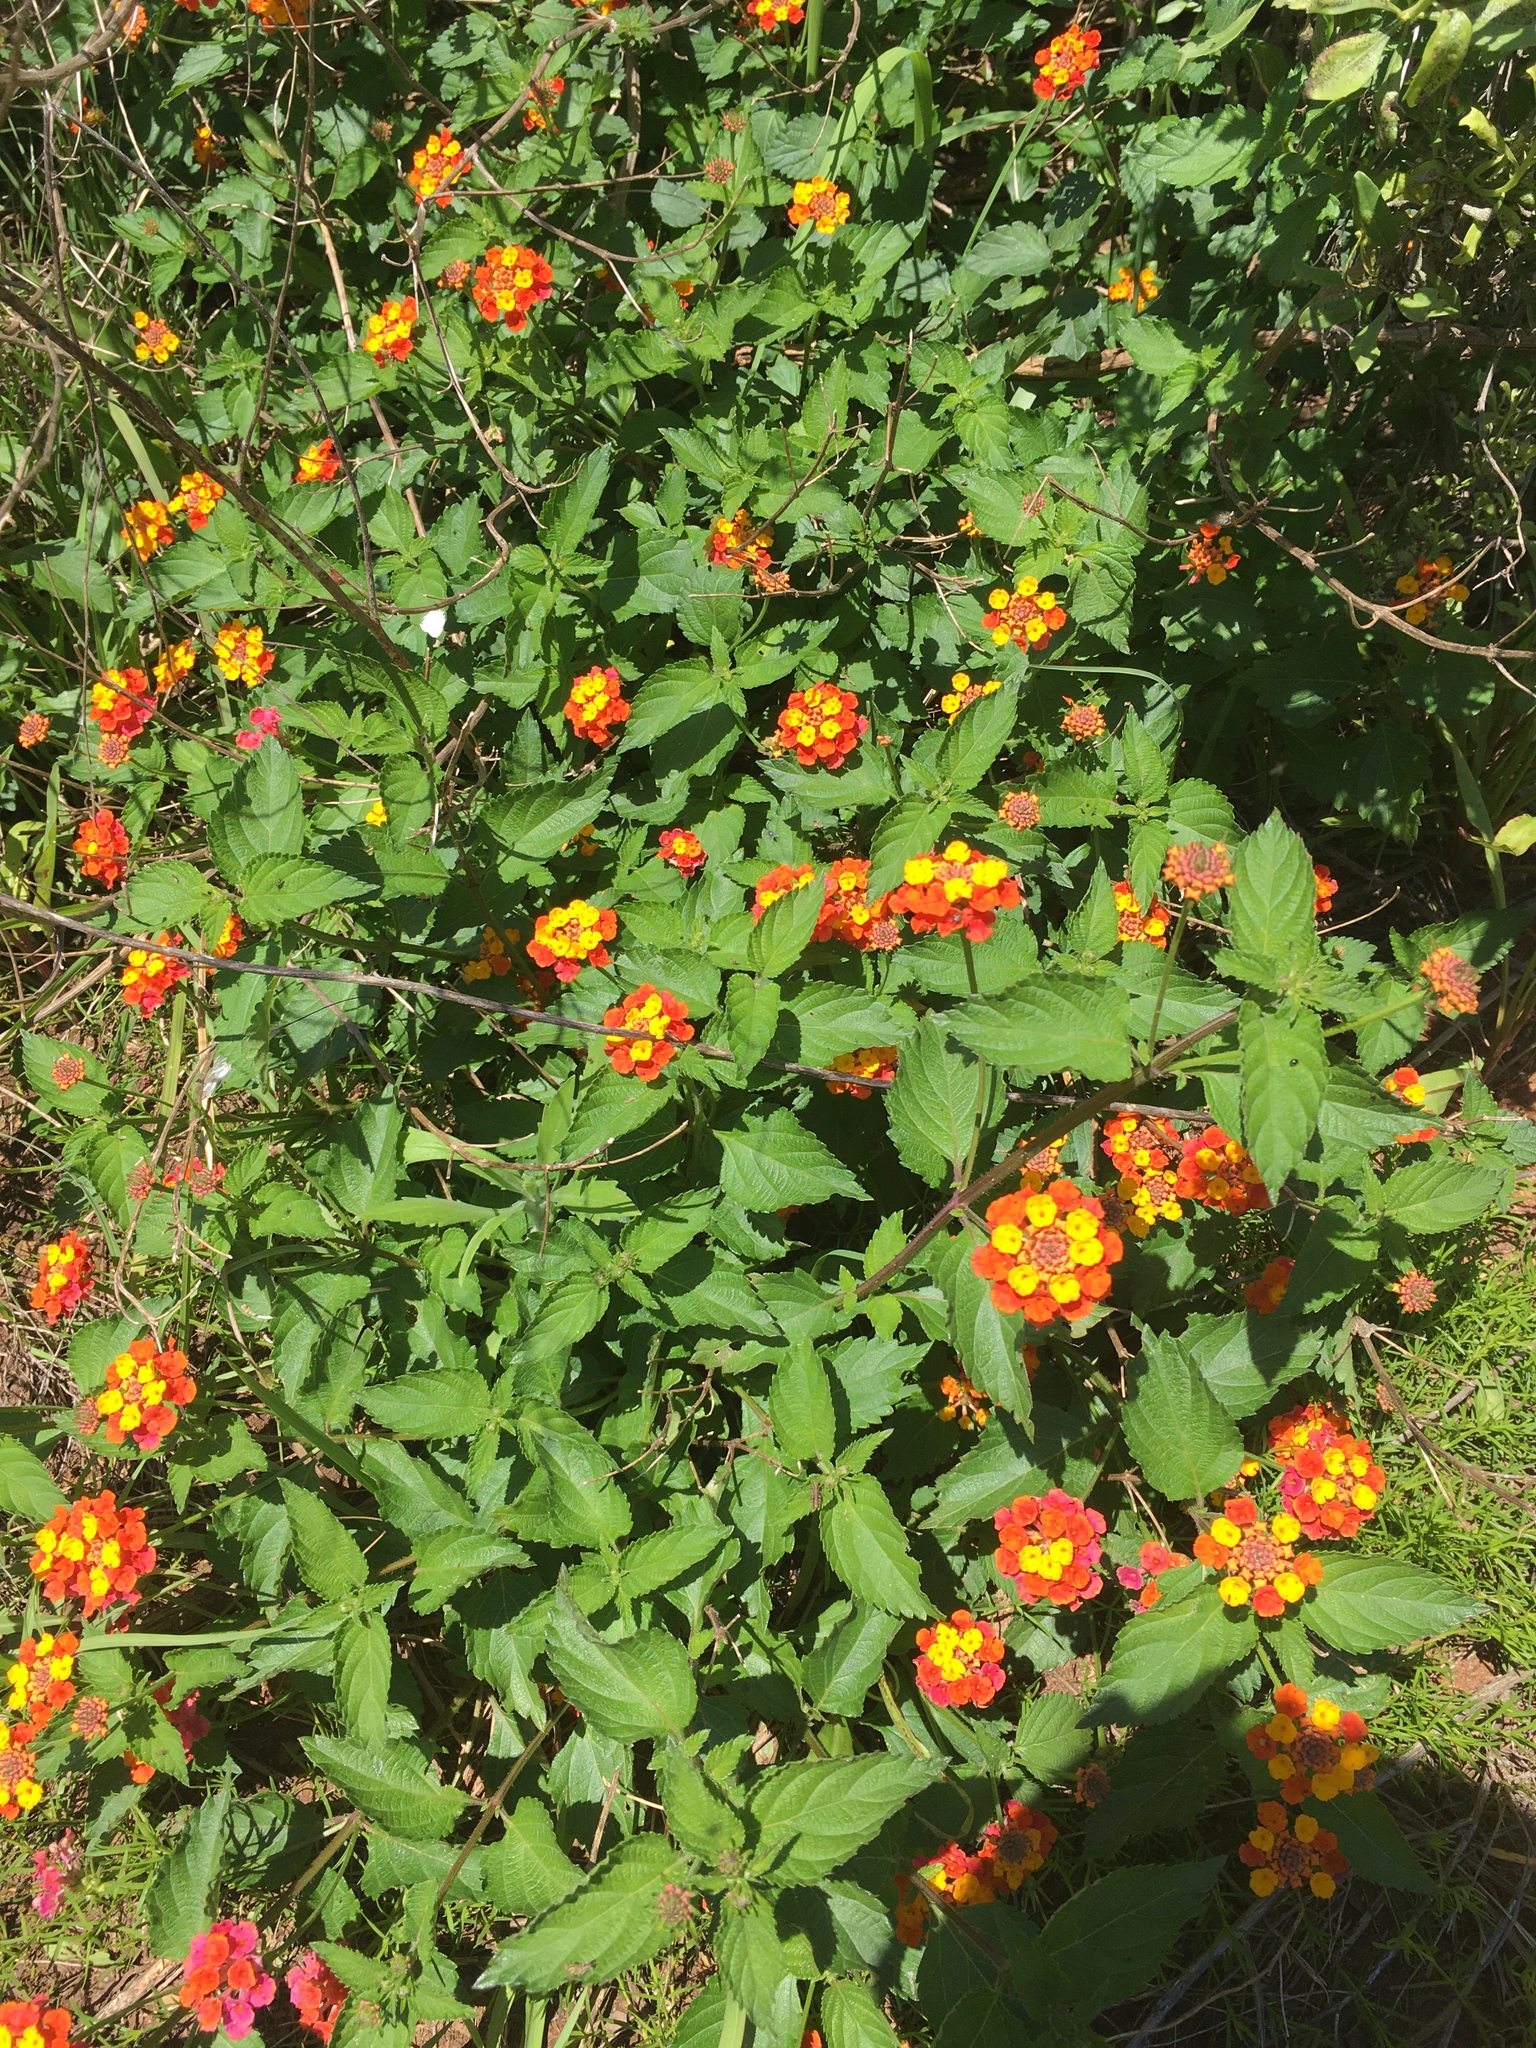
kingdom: Plantae
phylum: Tracheophyta
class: Magnoliopsida
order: Lamiales
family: Verbenaceae
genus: Lantana
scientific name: Lantana strigocamara
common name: Lantana
